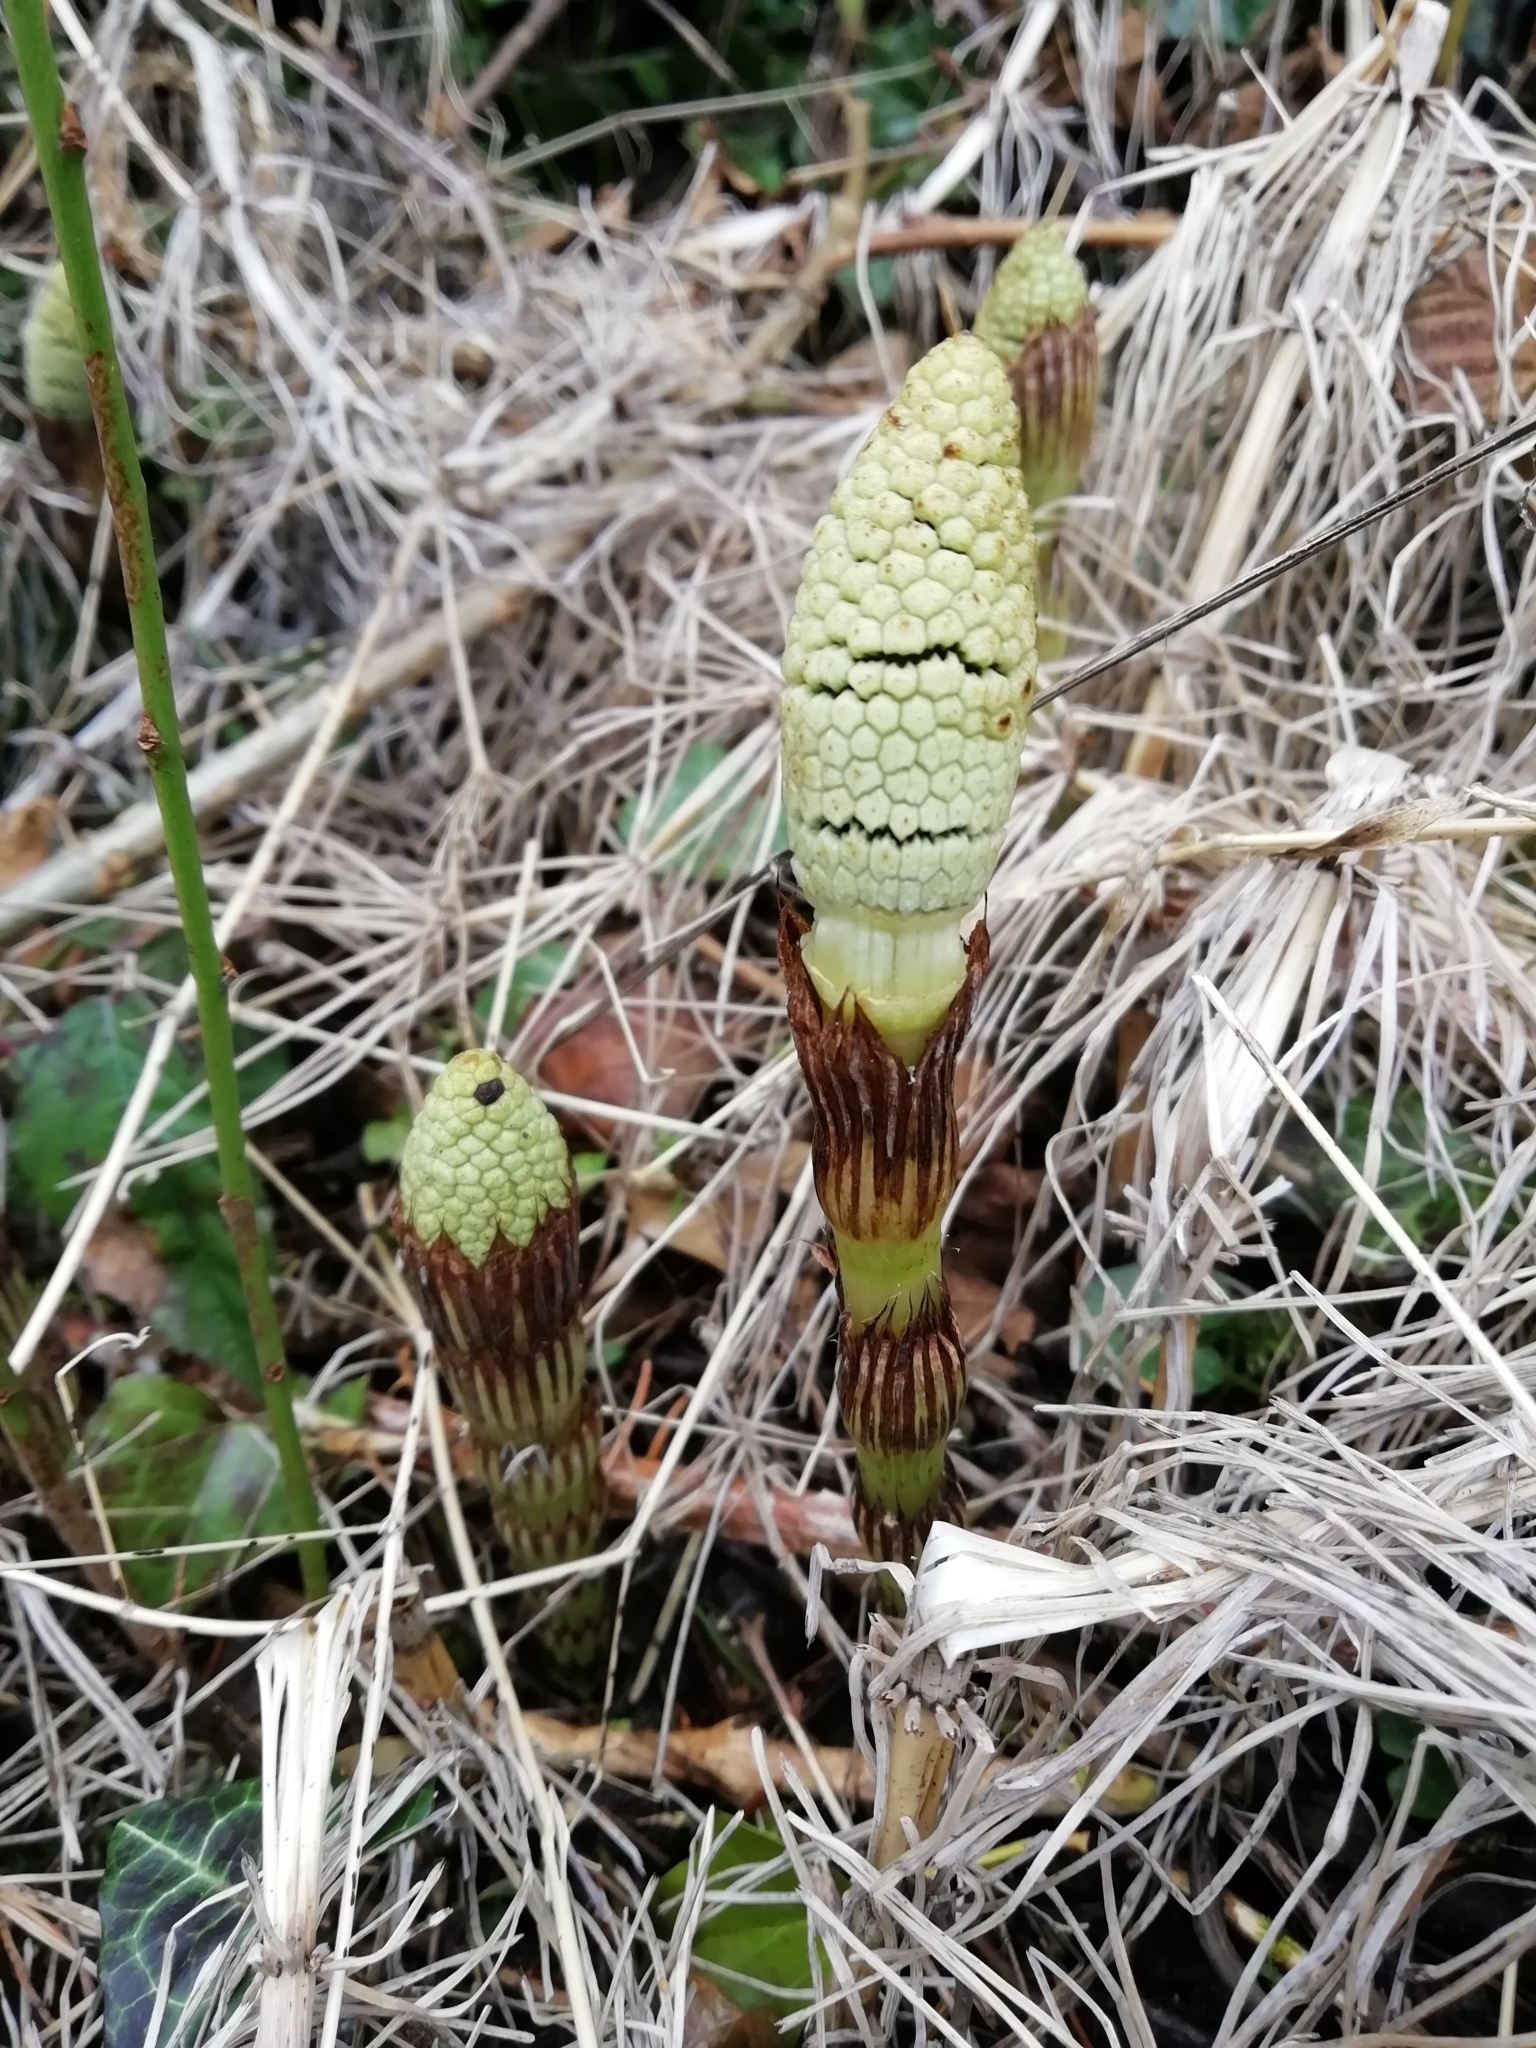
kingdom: Plantae
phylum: Tracheophyta
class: Polypodiopsida
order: Equisetales
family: Equisetaceae
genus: Equisetum
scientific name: Equisetum telmateia
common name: Great horsetail
